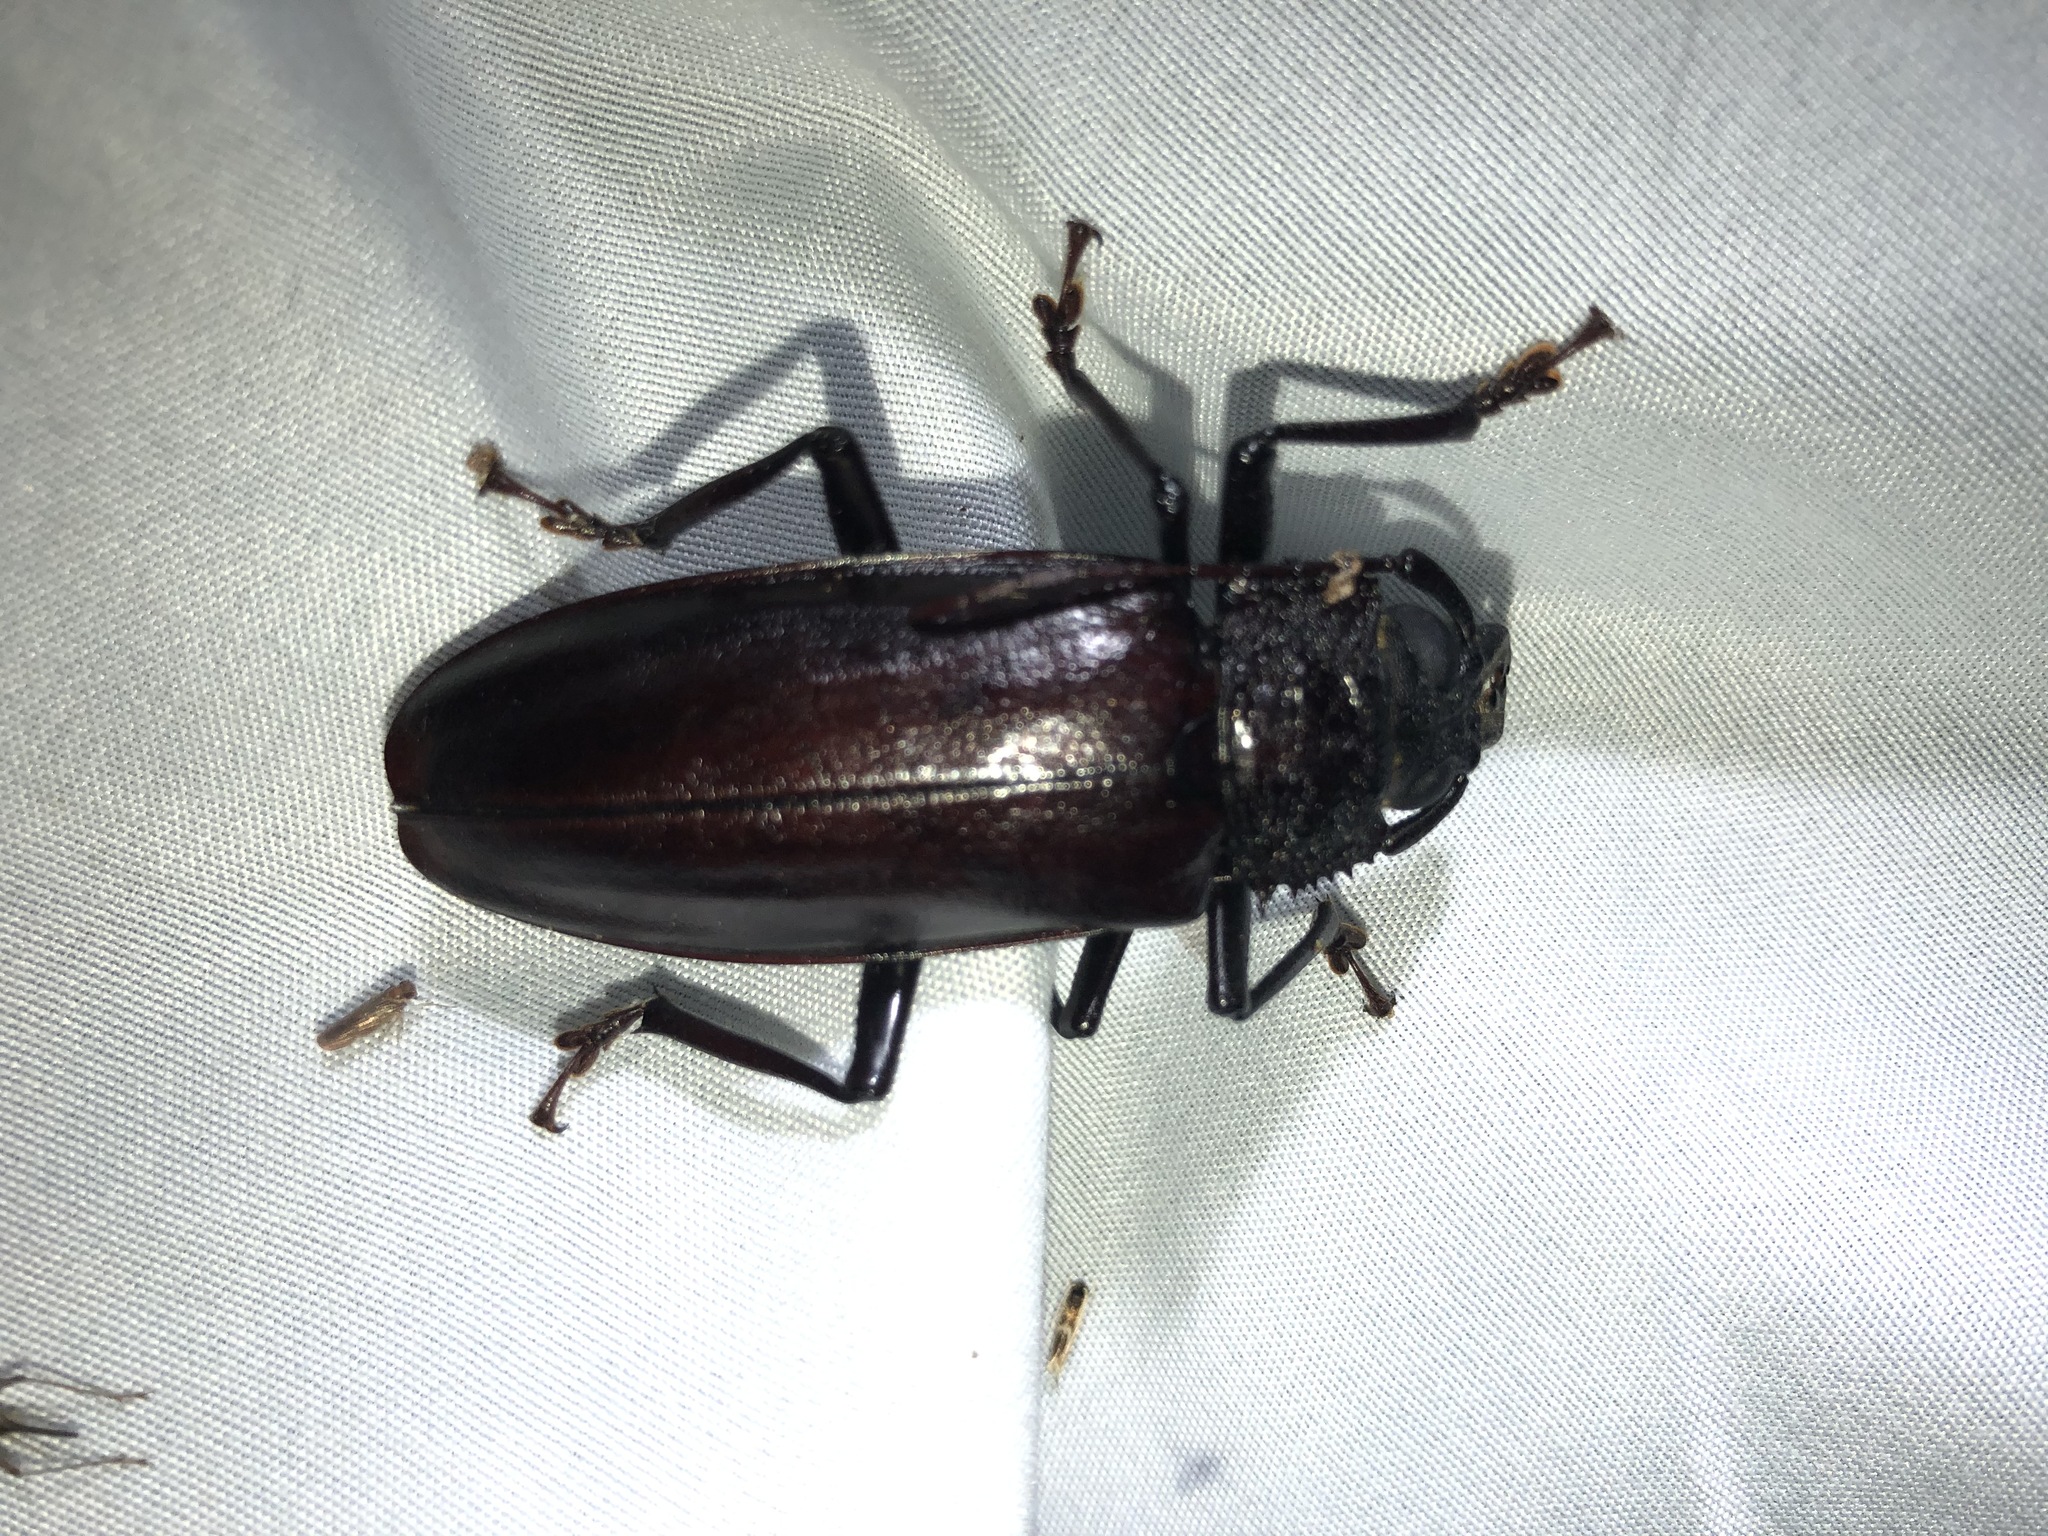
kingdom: Animalia
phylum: Arthropoda
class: Insecta
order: Coleoptera
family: Cerambycidae
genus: Mallodonopsis
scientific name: Mallodonopsis mexicanus
